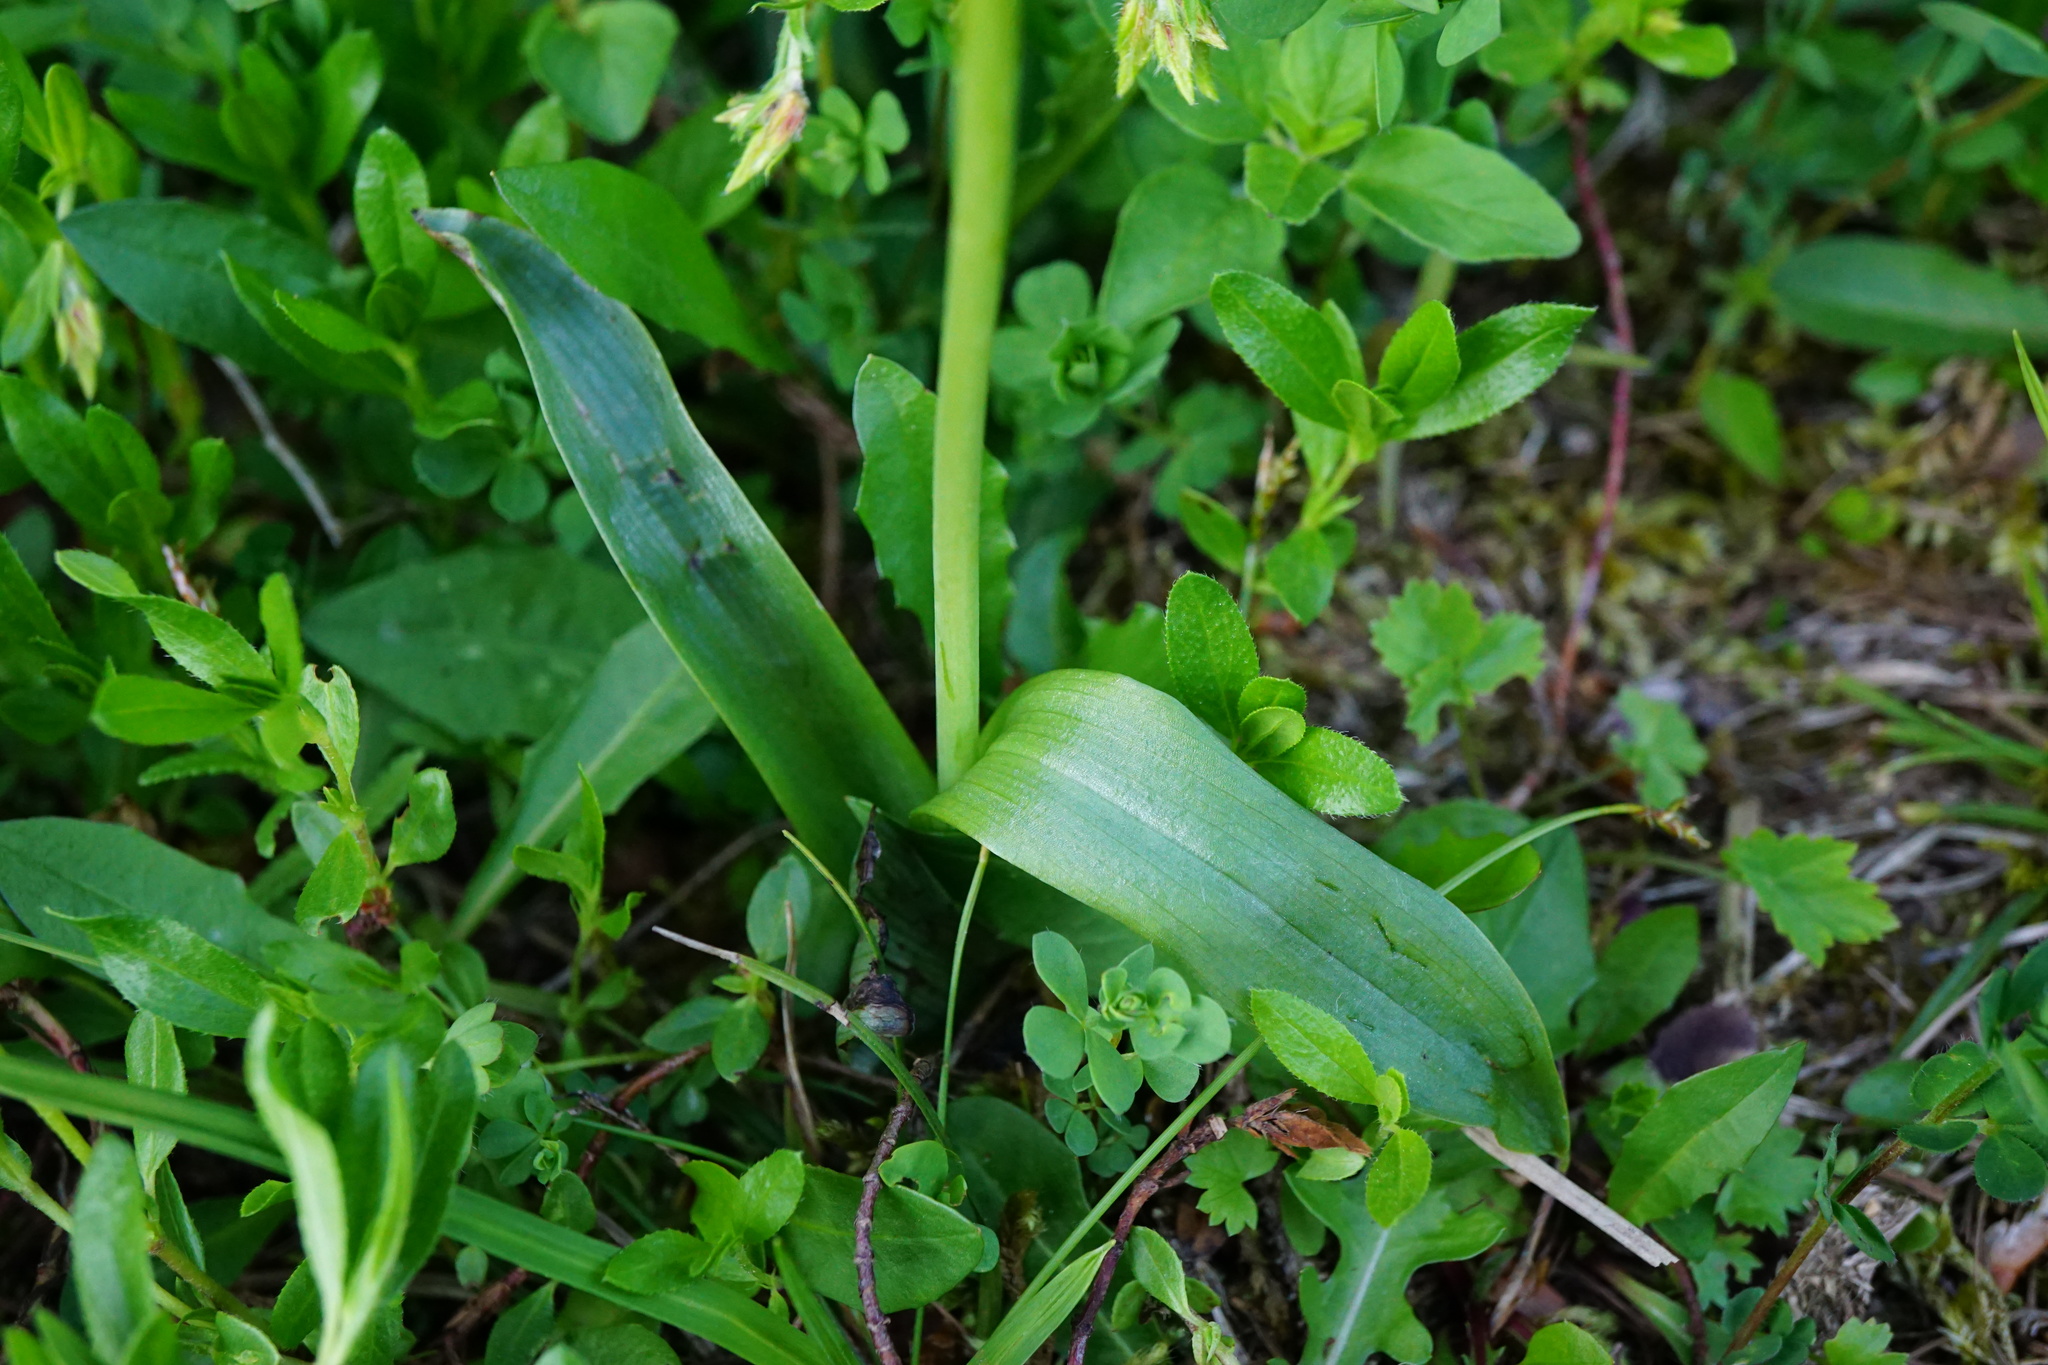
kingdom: Plantae
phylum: Tracheophyta
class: Liliopsida
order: Asparagales
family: Orchidaceae
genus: Ophrys
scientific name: Ophrys insectifera
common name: Fly orchid
